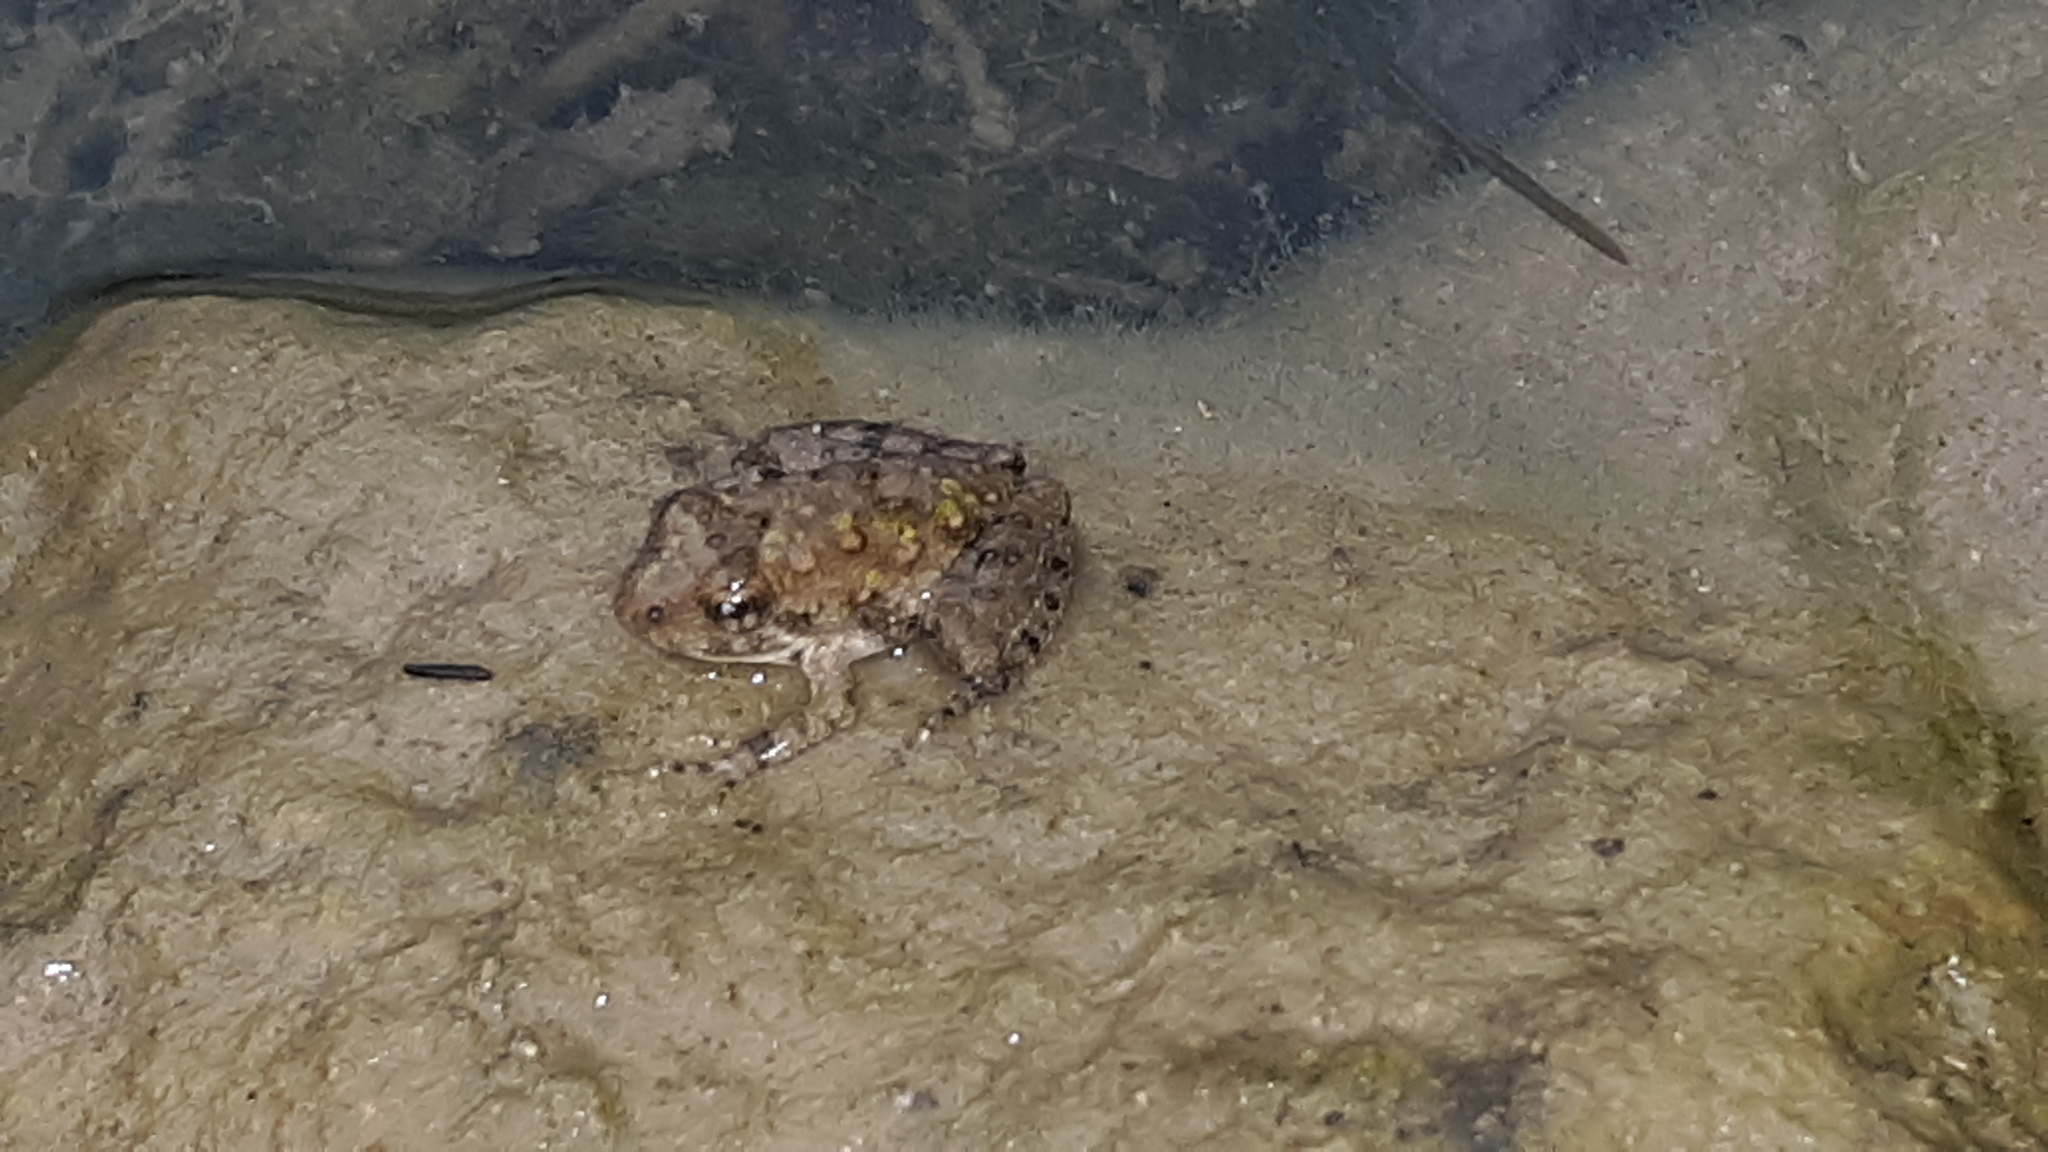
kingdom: Animalia
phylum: Chordata
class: Amphibia
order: Anura
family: Hylidae
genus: Acris
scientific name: Acris blanchardi
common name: Blanchard's cricket frog
